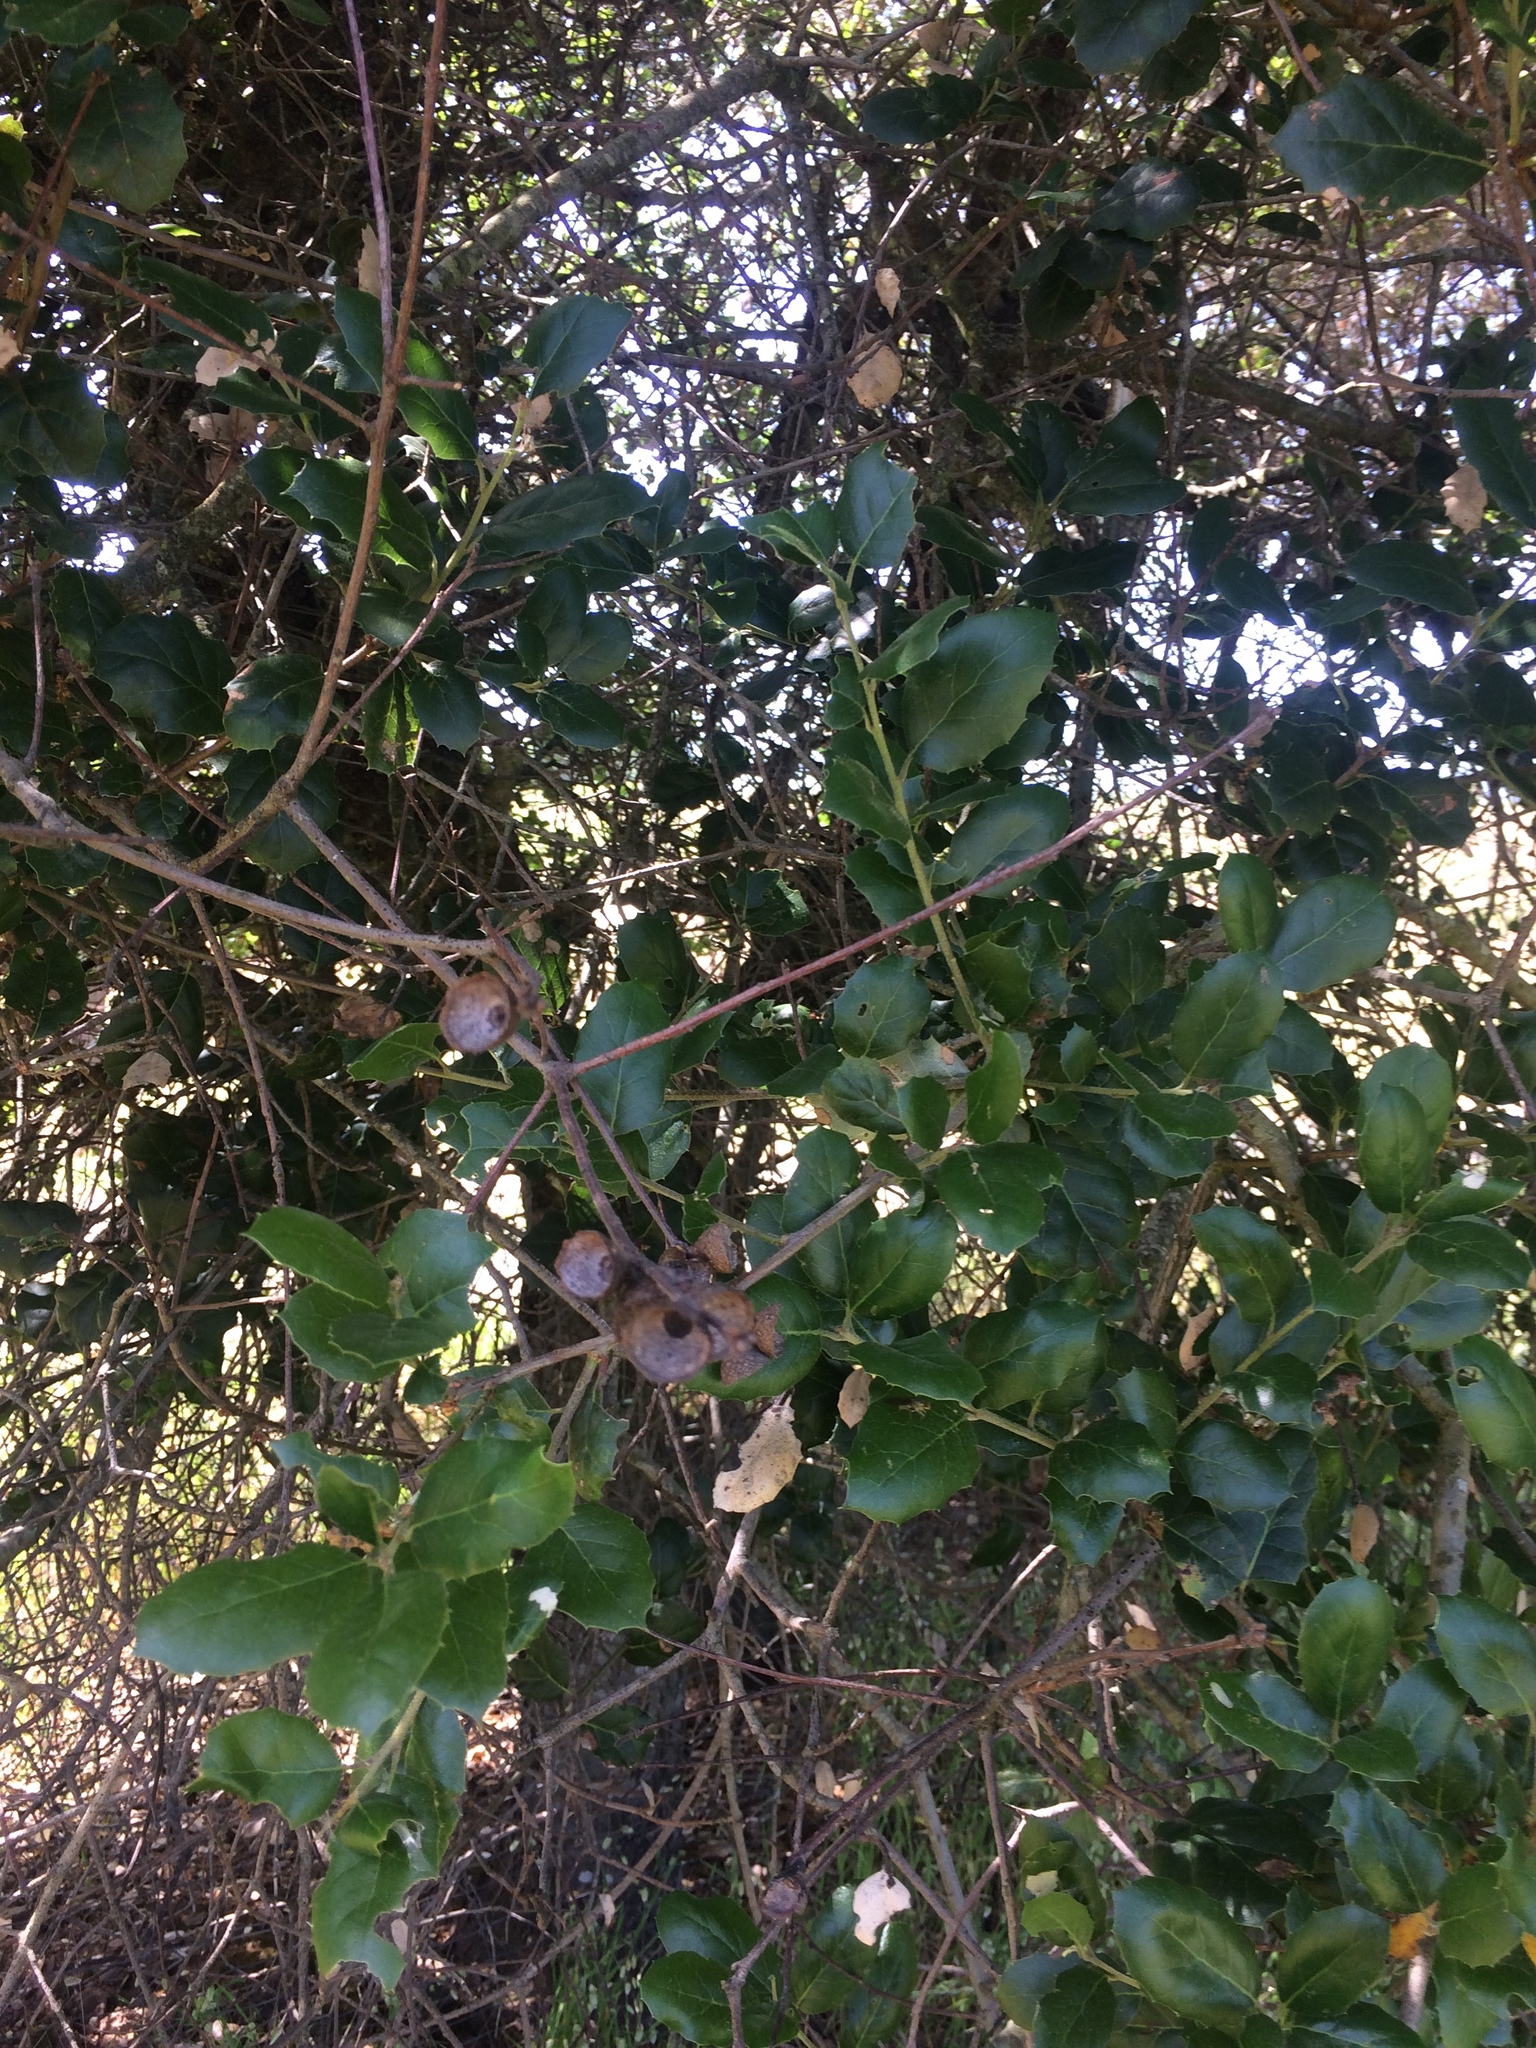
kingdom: Plantae
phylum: Tracheophyta
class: Magnoliopsida
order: Fagales
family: Fagaceae
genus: Quercus
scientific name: Quercus agrifolia
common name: California live oak
